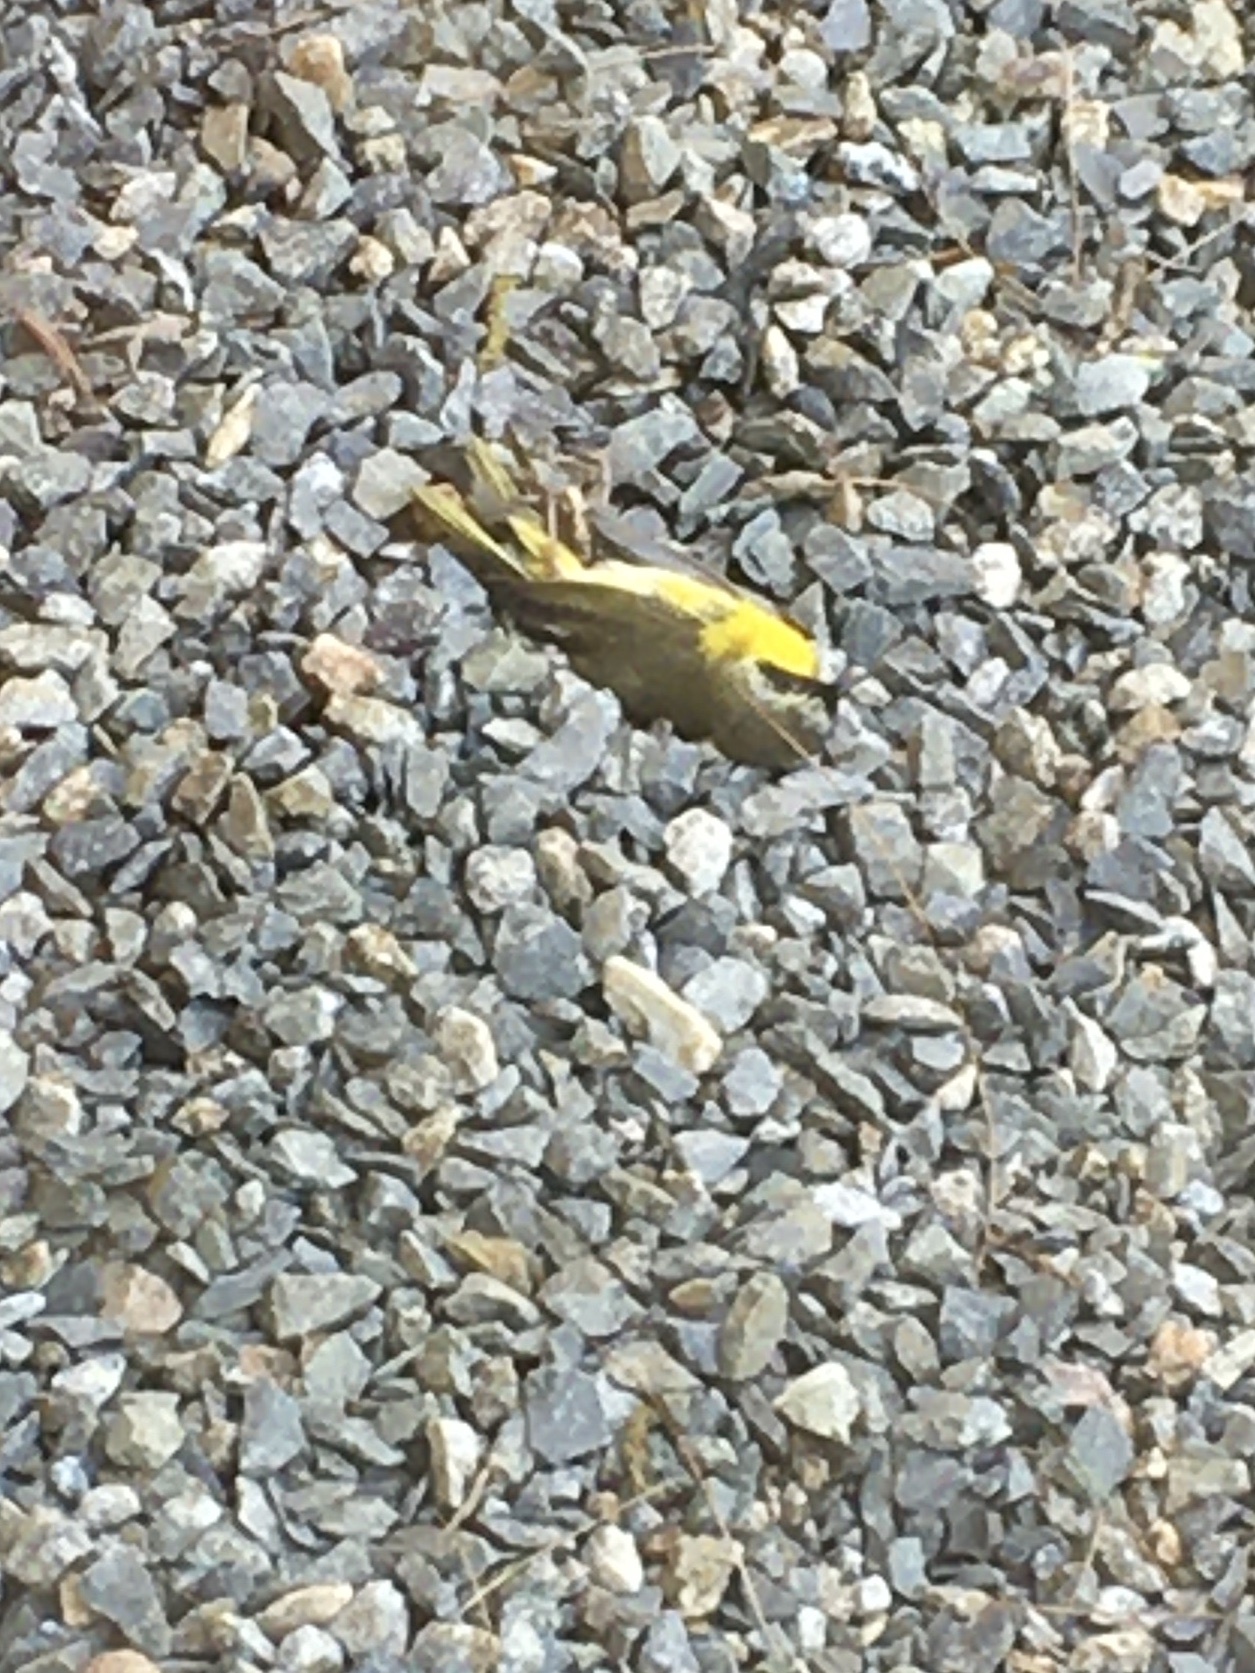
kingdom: Animalia
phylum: Chordata
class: Aves
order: Passeriformes
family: Parulidae
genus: Geothlypis
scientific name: Geothlypis trichas
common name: Common yellowthroat
